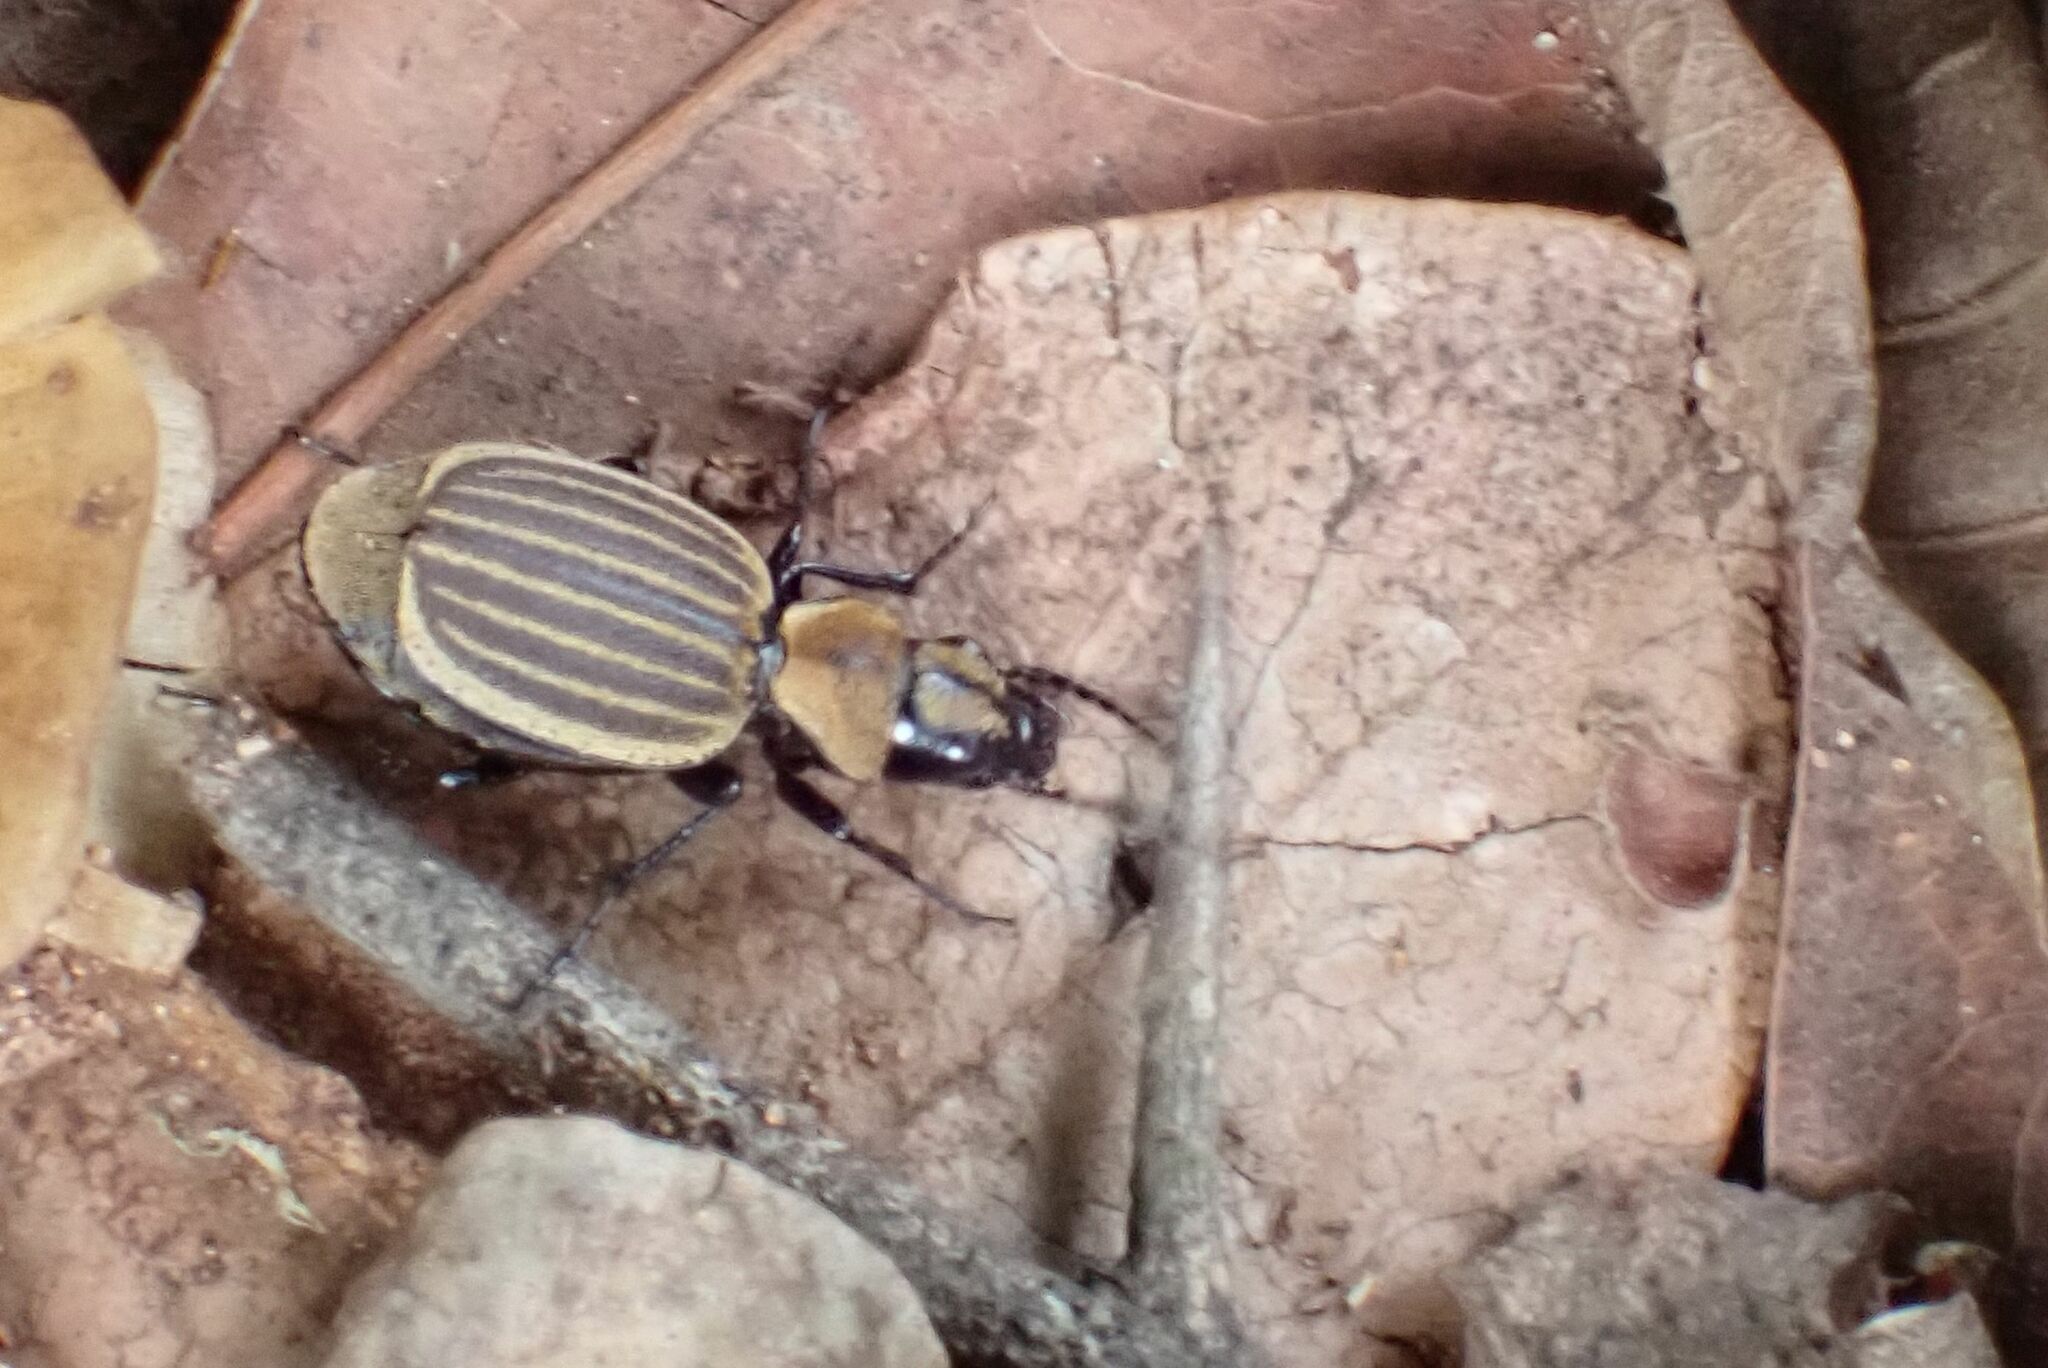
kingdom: Animalia
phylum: Arthropoda
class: Insecta
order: Coleoptera
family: Carabidae
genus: Graphipterus
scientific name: Graphipterus insidiosus
